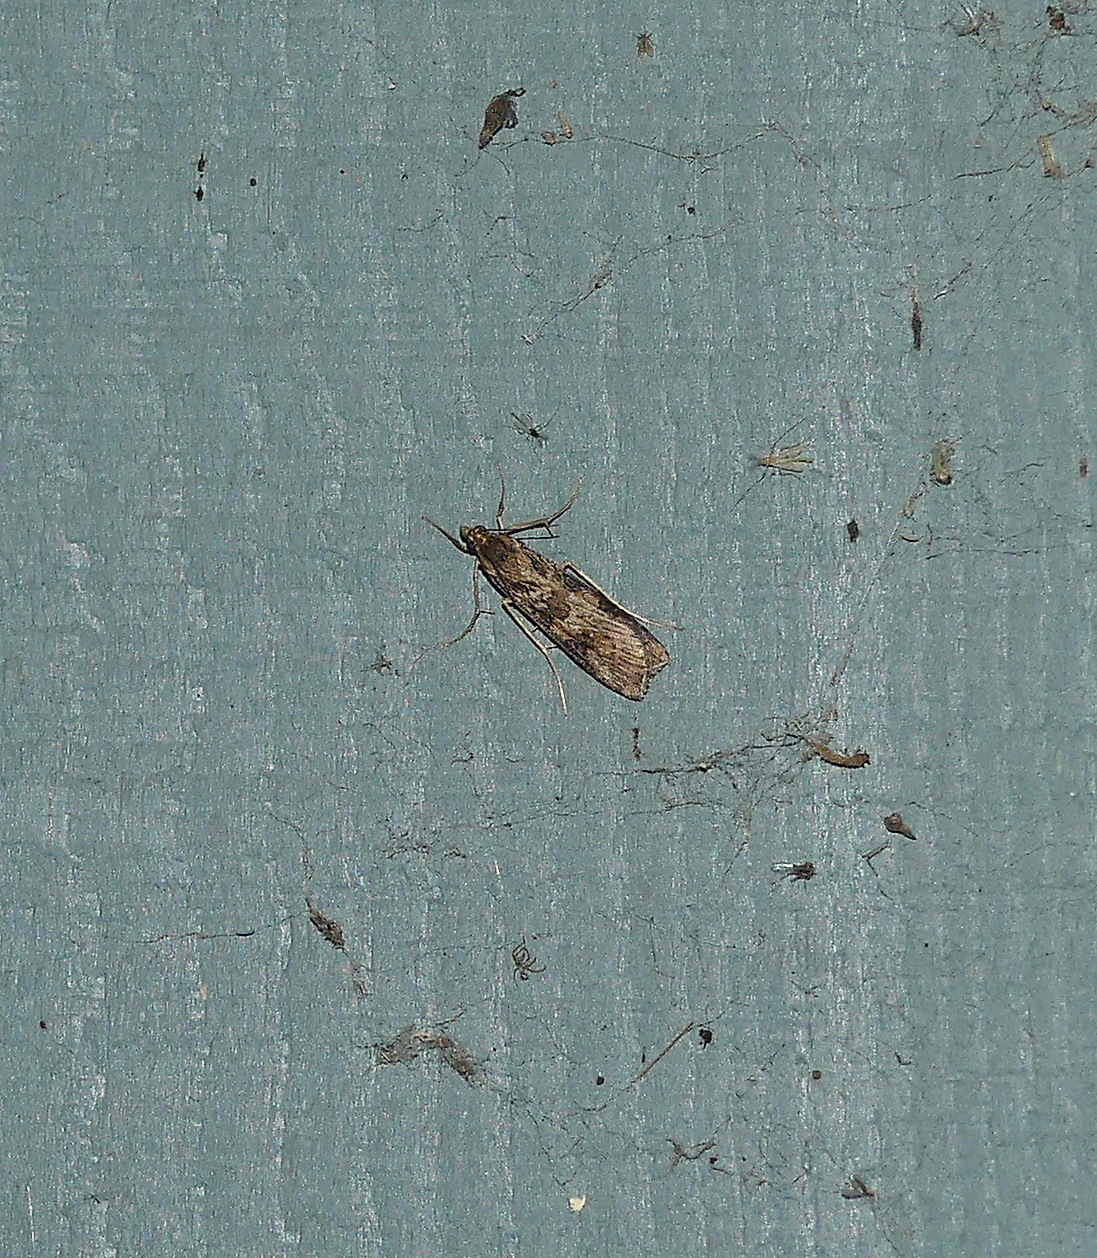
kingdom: Animalia
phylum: Arthropoda
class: Insecta
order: Lepidoptera
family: Crambidae
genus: Nomophila
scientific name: Nomophila nearctica
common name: American rush veneer
